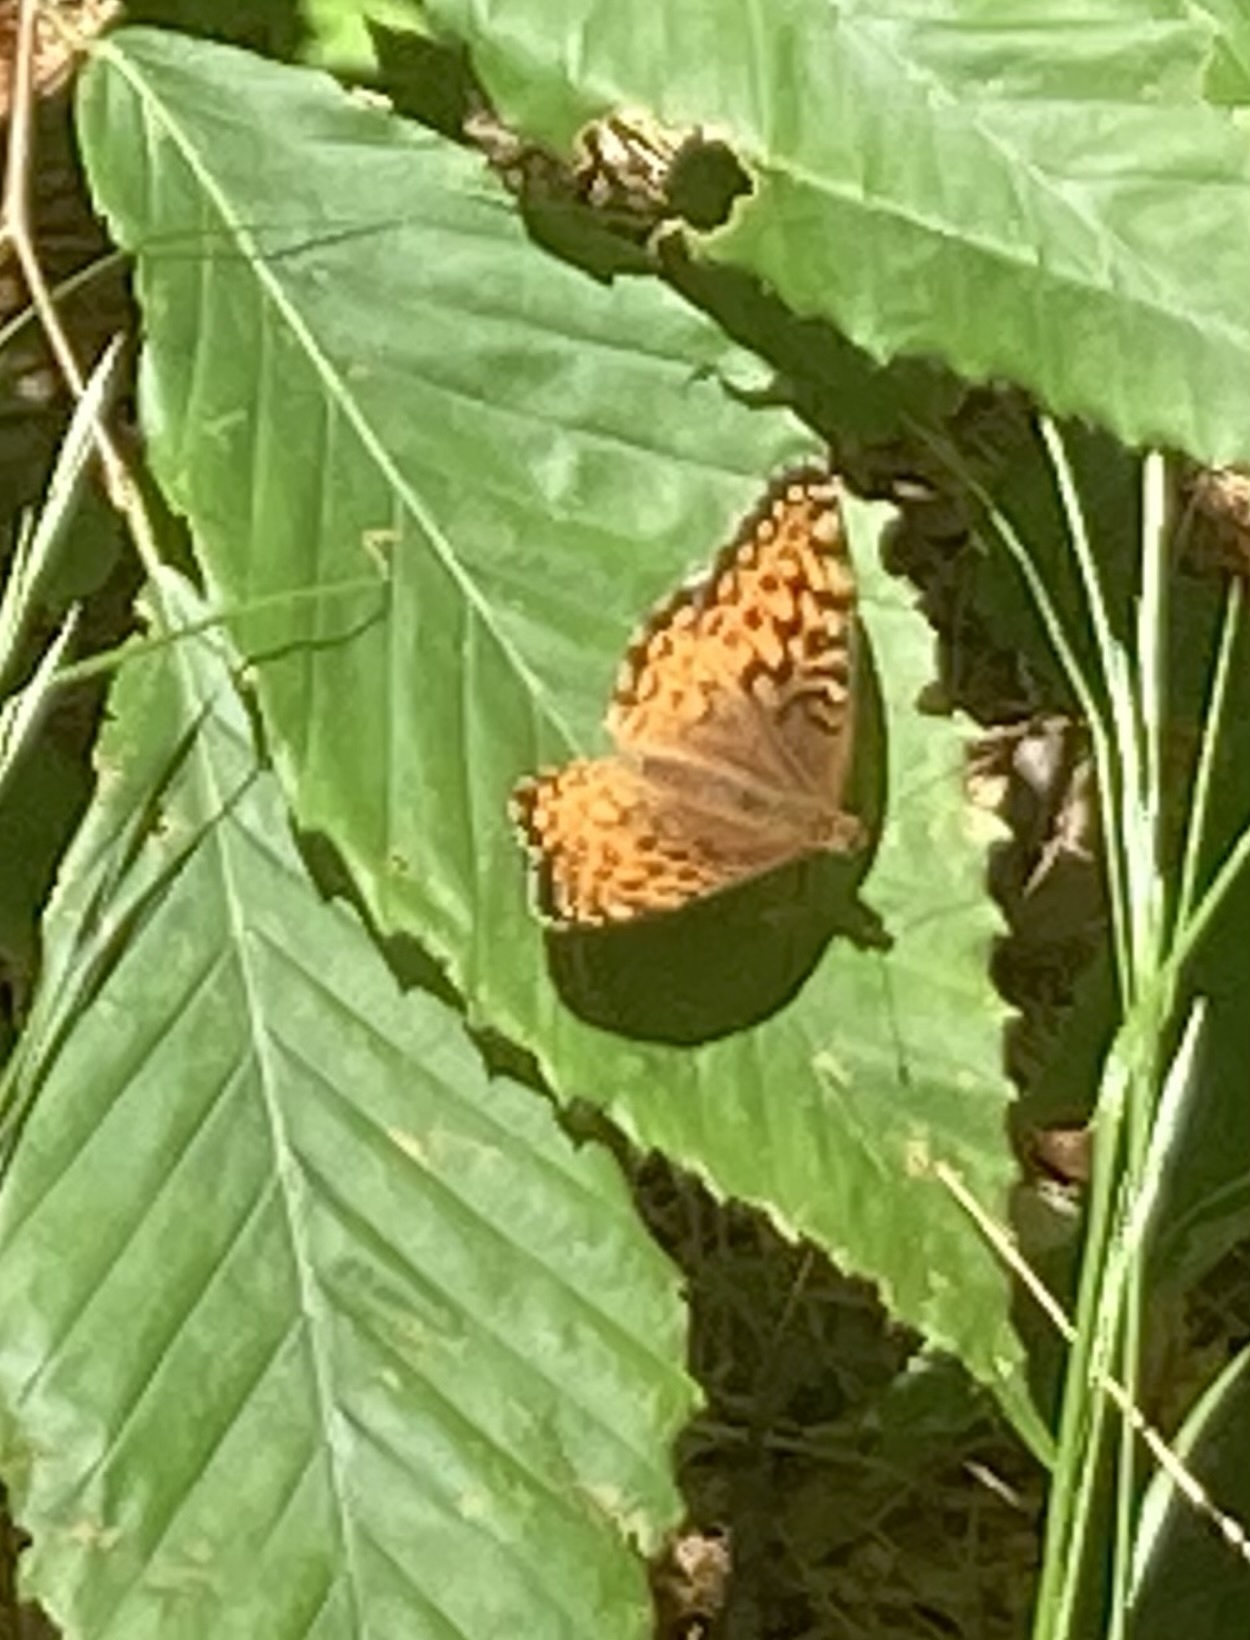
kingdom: Animalia
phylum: Arthropoda
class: Insecta
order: Lepidoptera
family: Nymphalidae
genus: Speyeria
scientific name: Speyeria atlantis
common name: Atlantis fritillary
